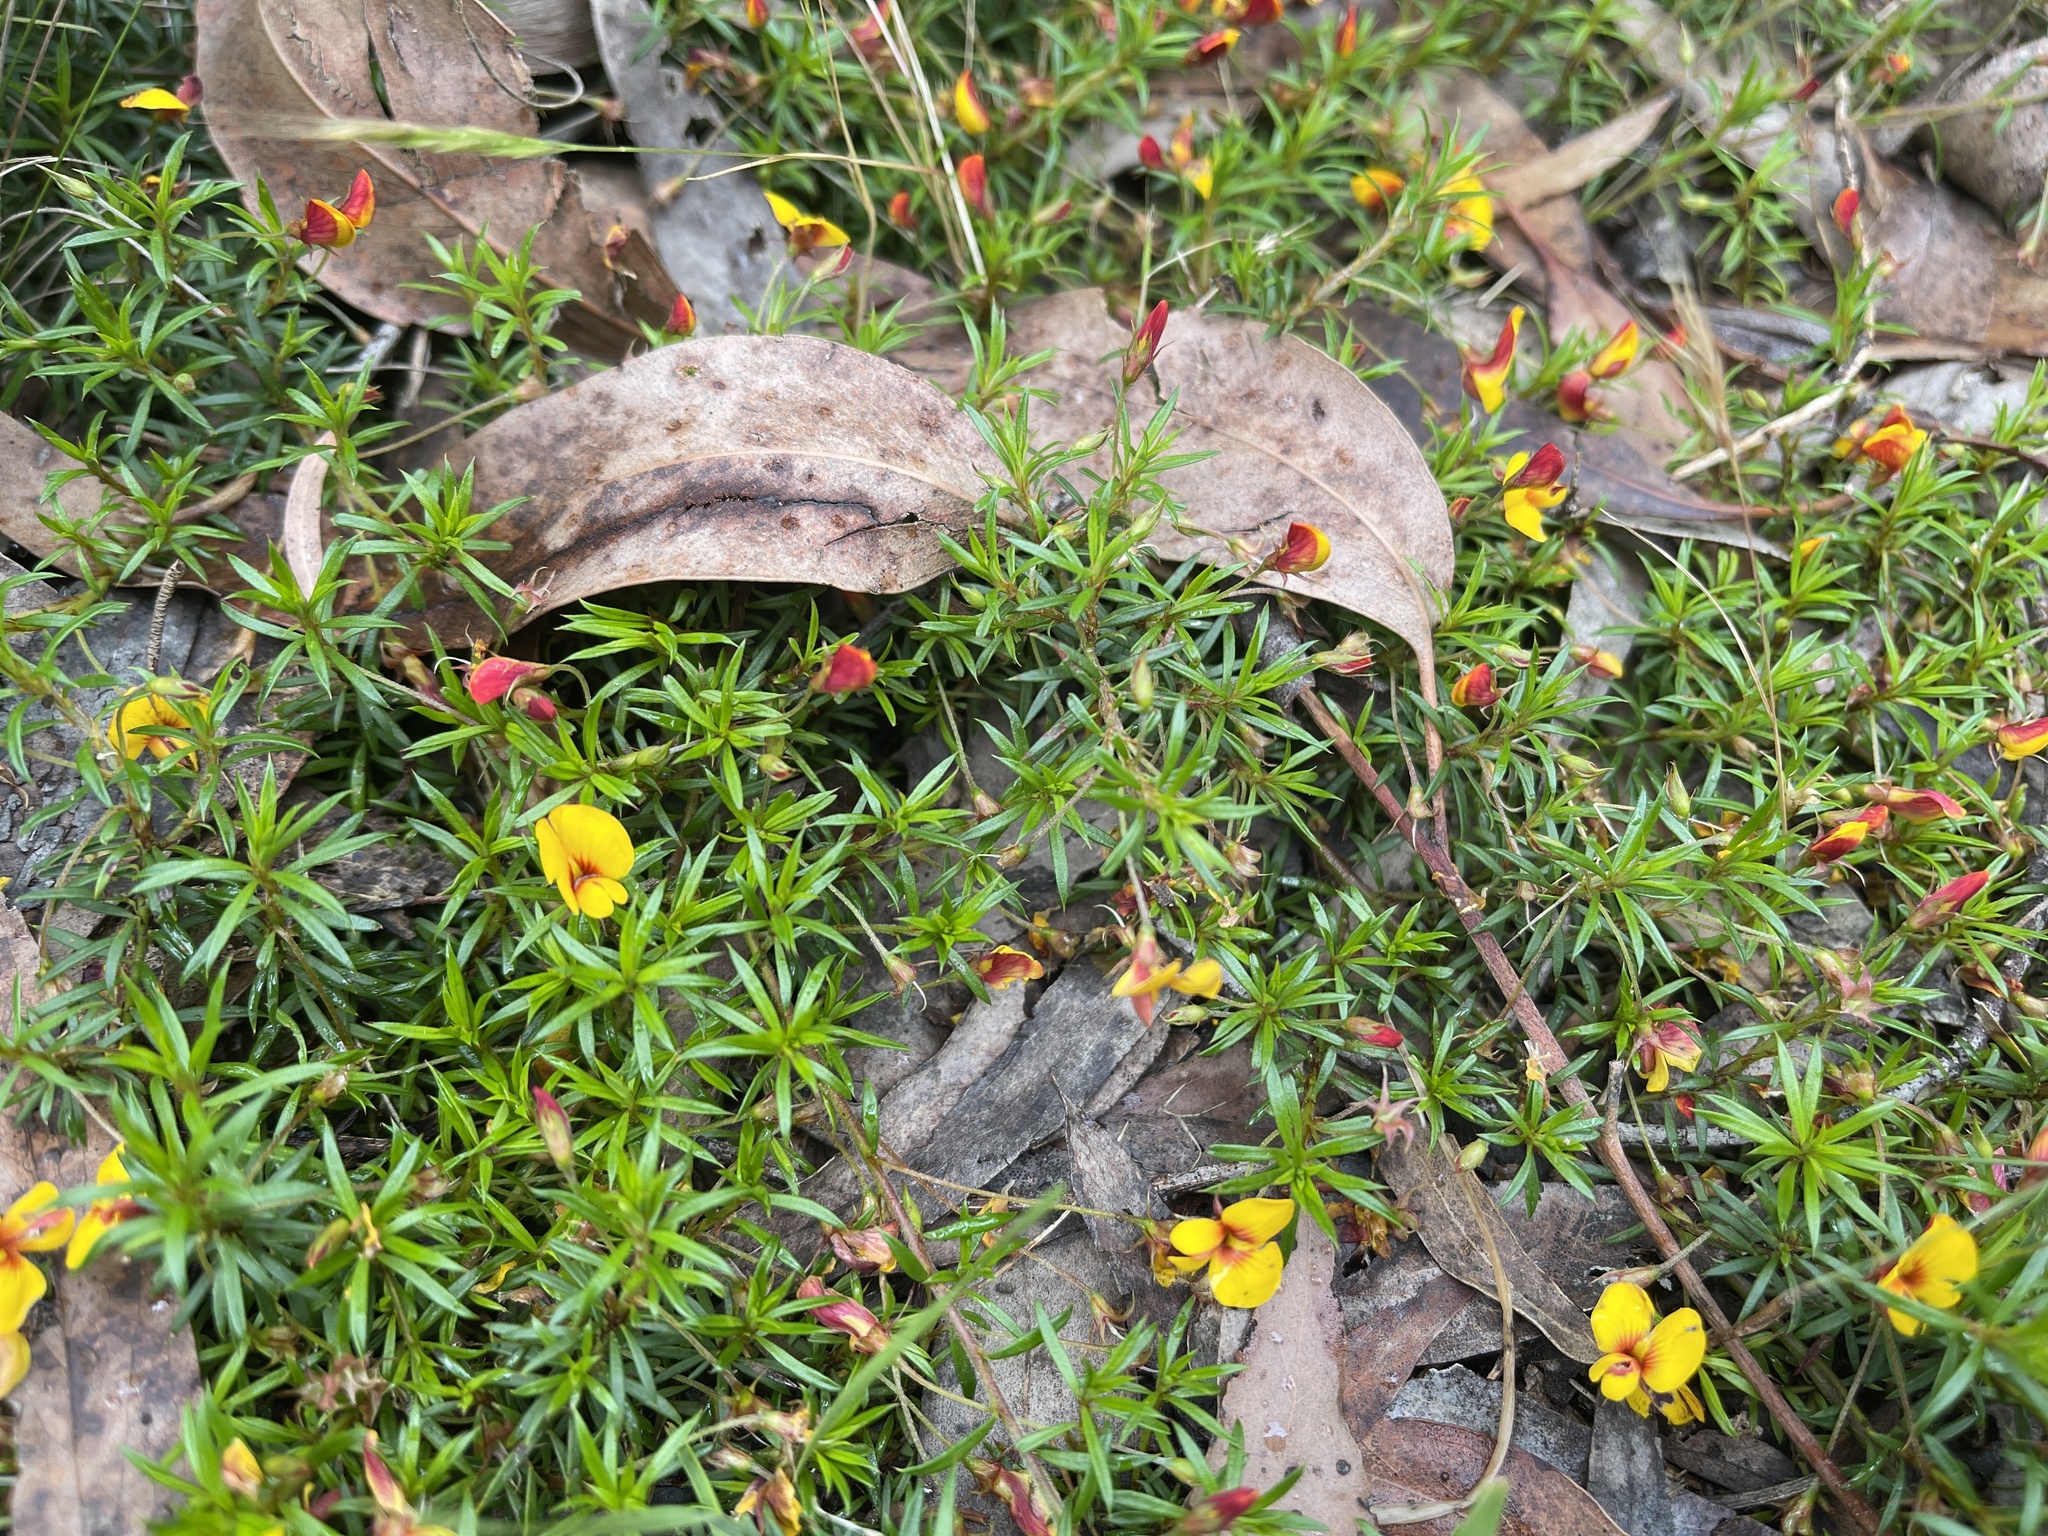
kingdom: Plantae
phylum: Tracheophyta
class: Magnoliopsida
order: Fabales
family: Fabaceae
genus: Pultenaea
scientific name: Pultenaea pedunculata
